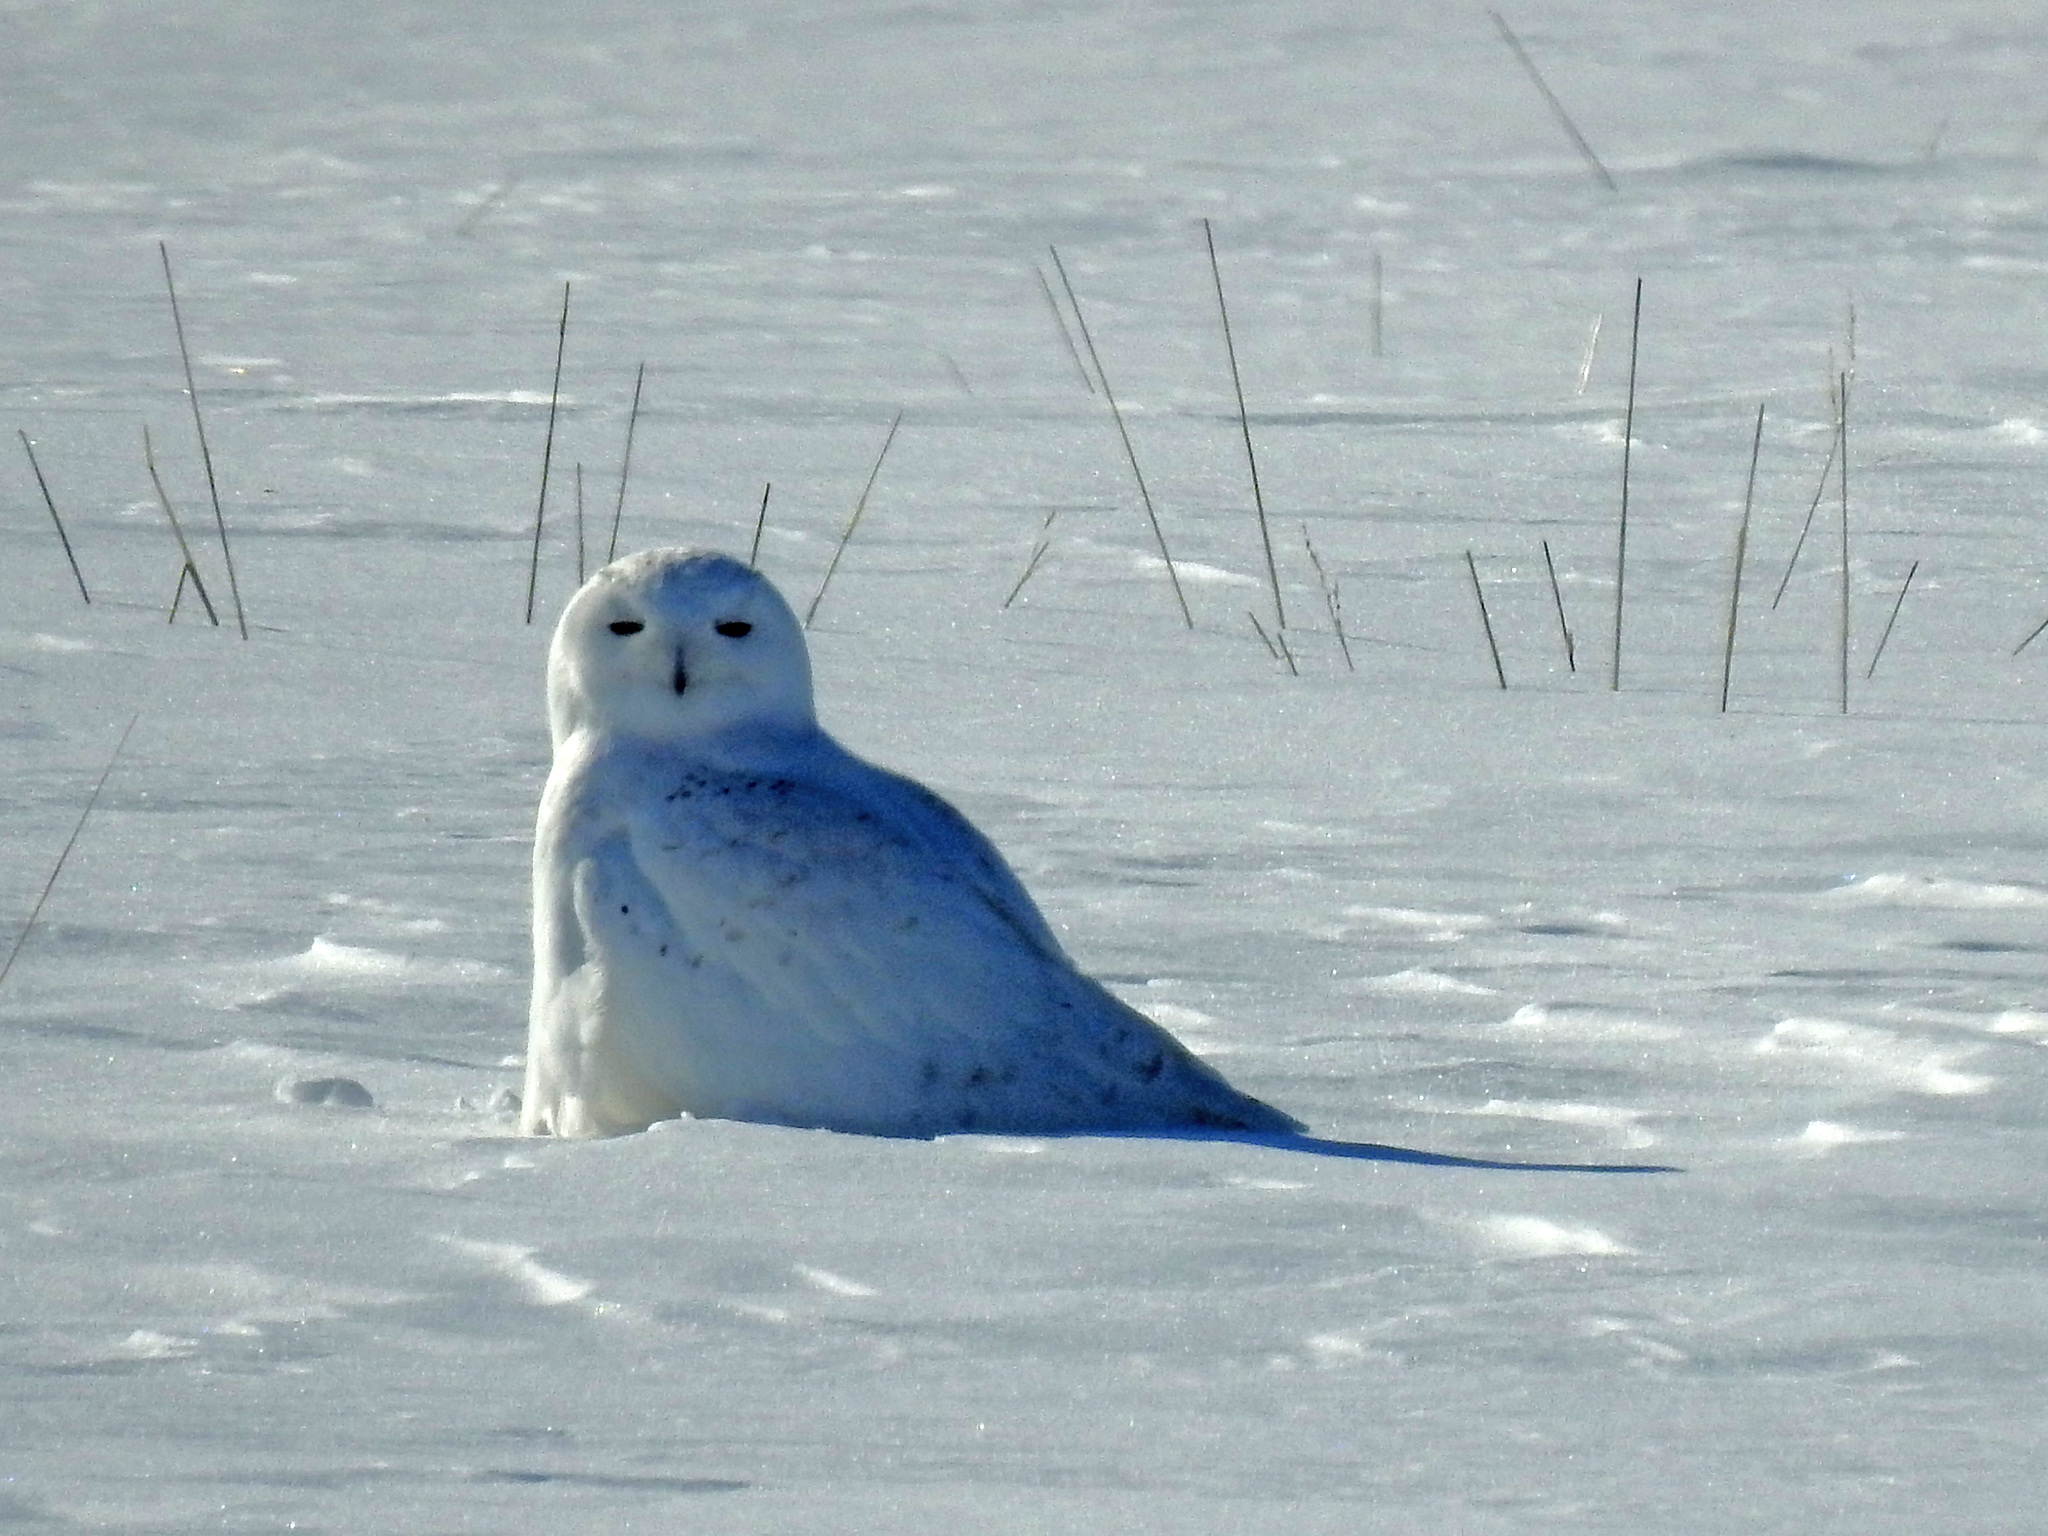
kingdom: Animalia
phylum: Chordata
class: Aves
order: Strigiformes
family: Strigidae
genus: Bubo
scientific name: Bubo scandiacus
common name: Snowy owl
